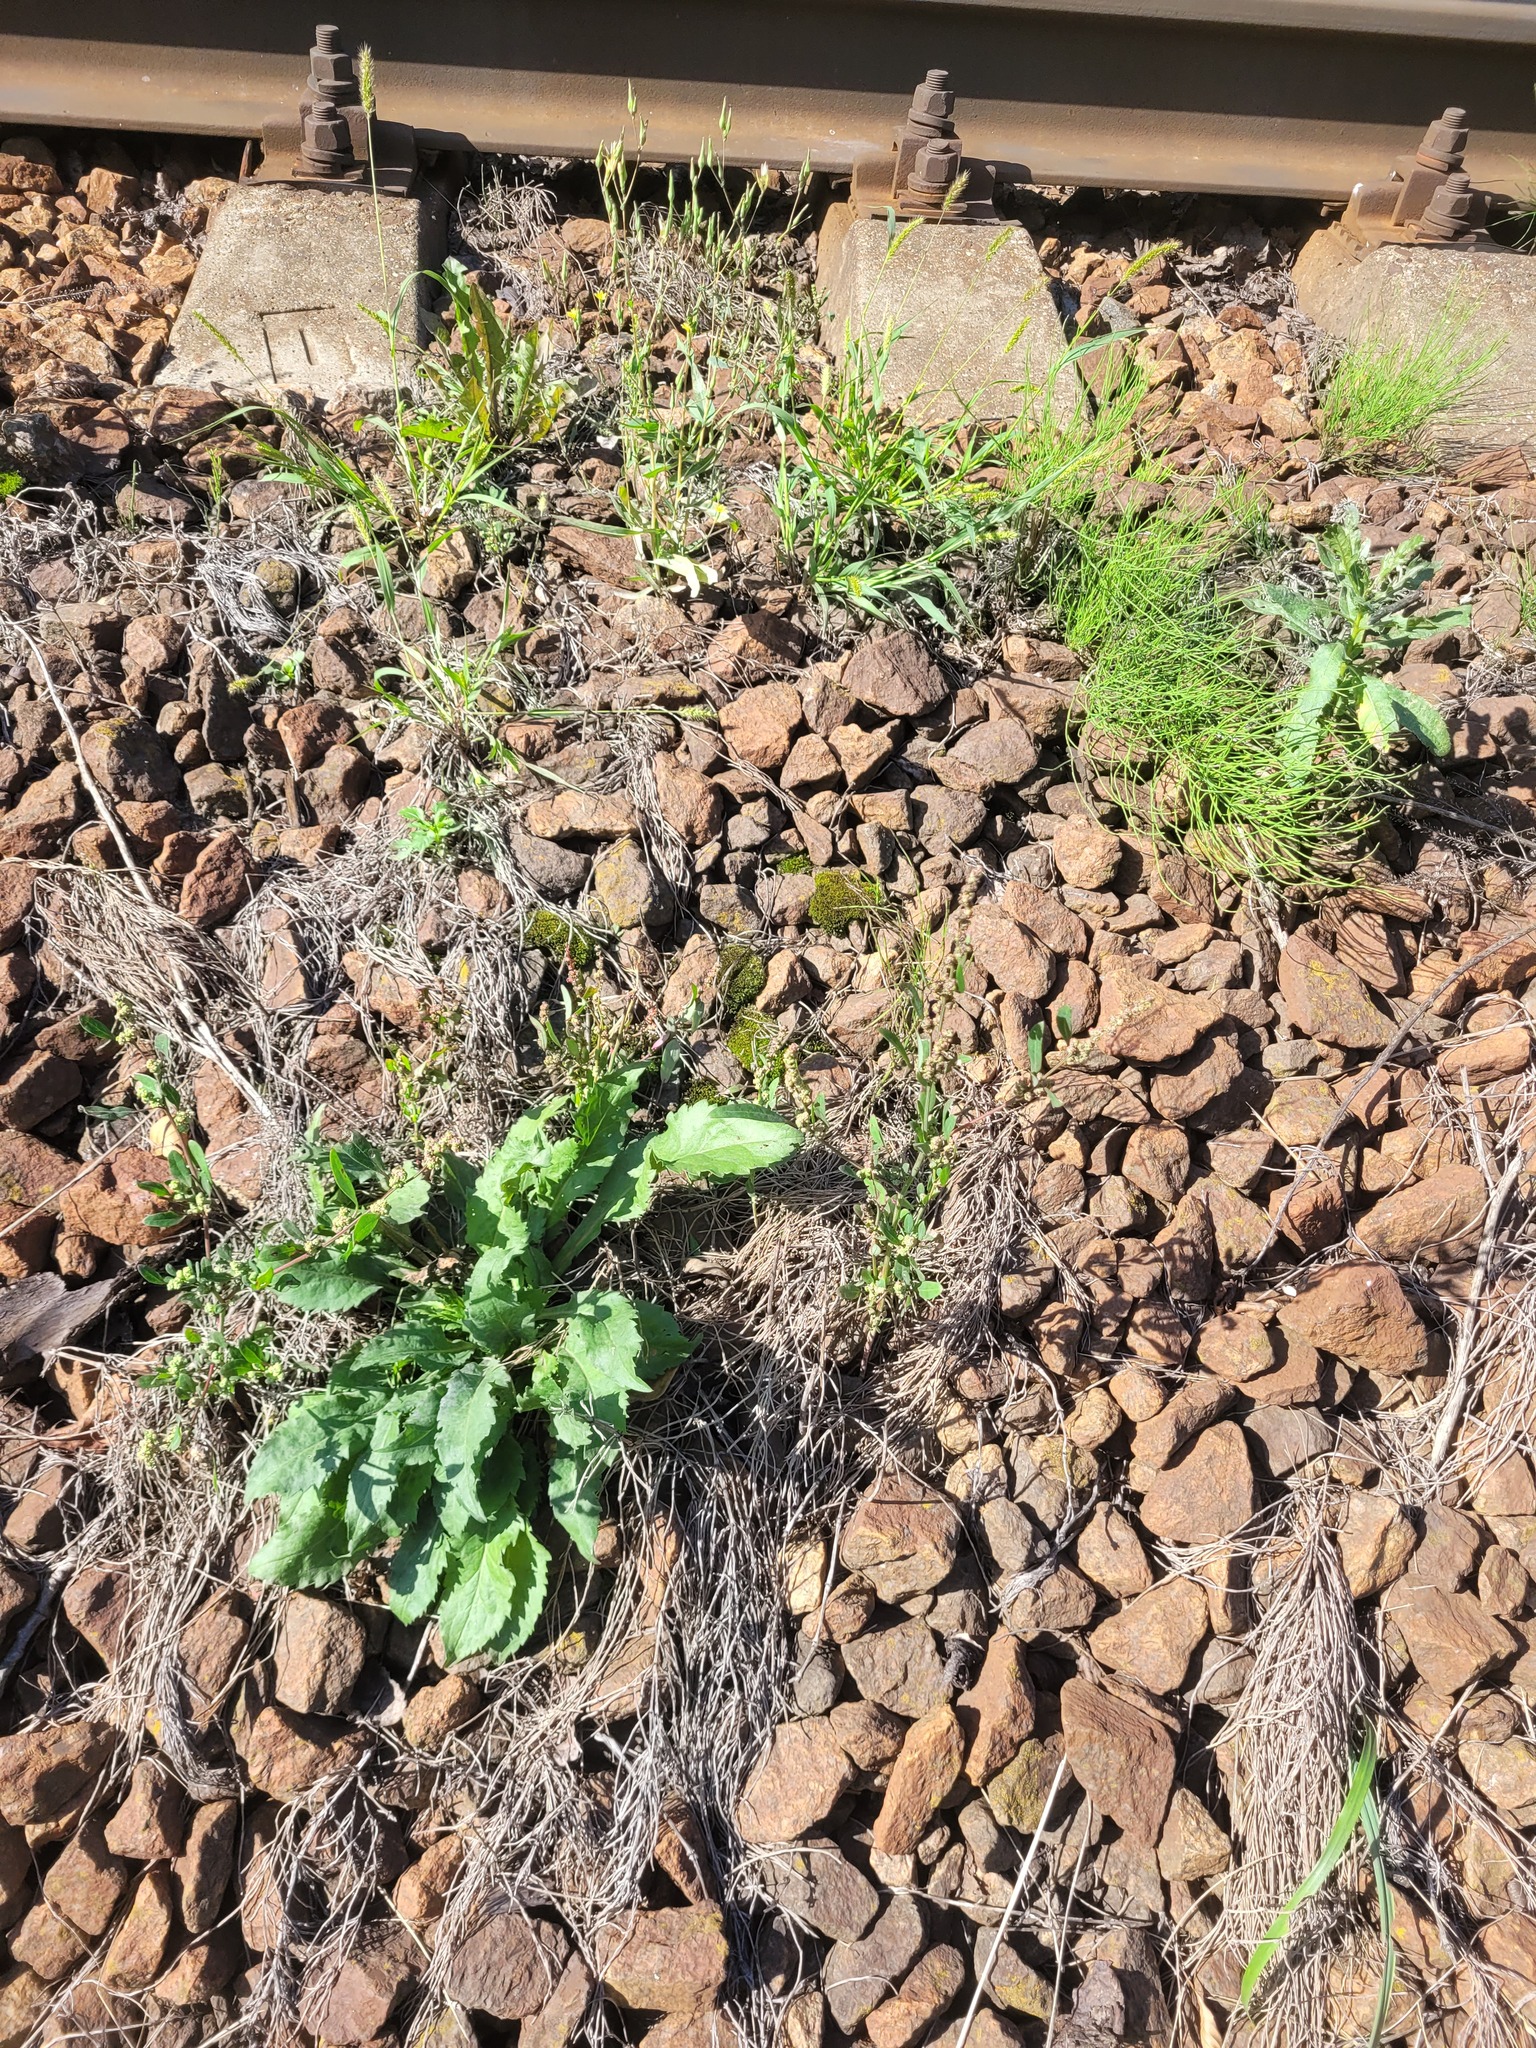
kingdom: Plantae
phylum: Tracheophyta
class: Magnoliopsida
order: Asterales
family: Asteraceae
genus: Solidago
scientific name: Solidago virgaurea
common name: Goldenrod
